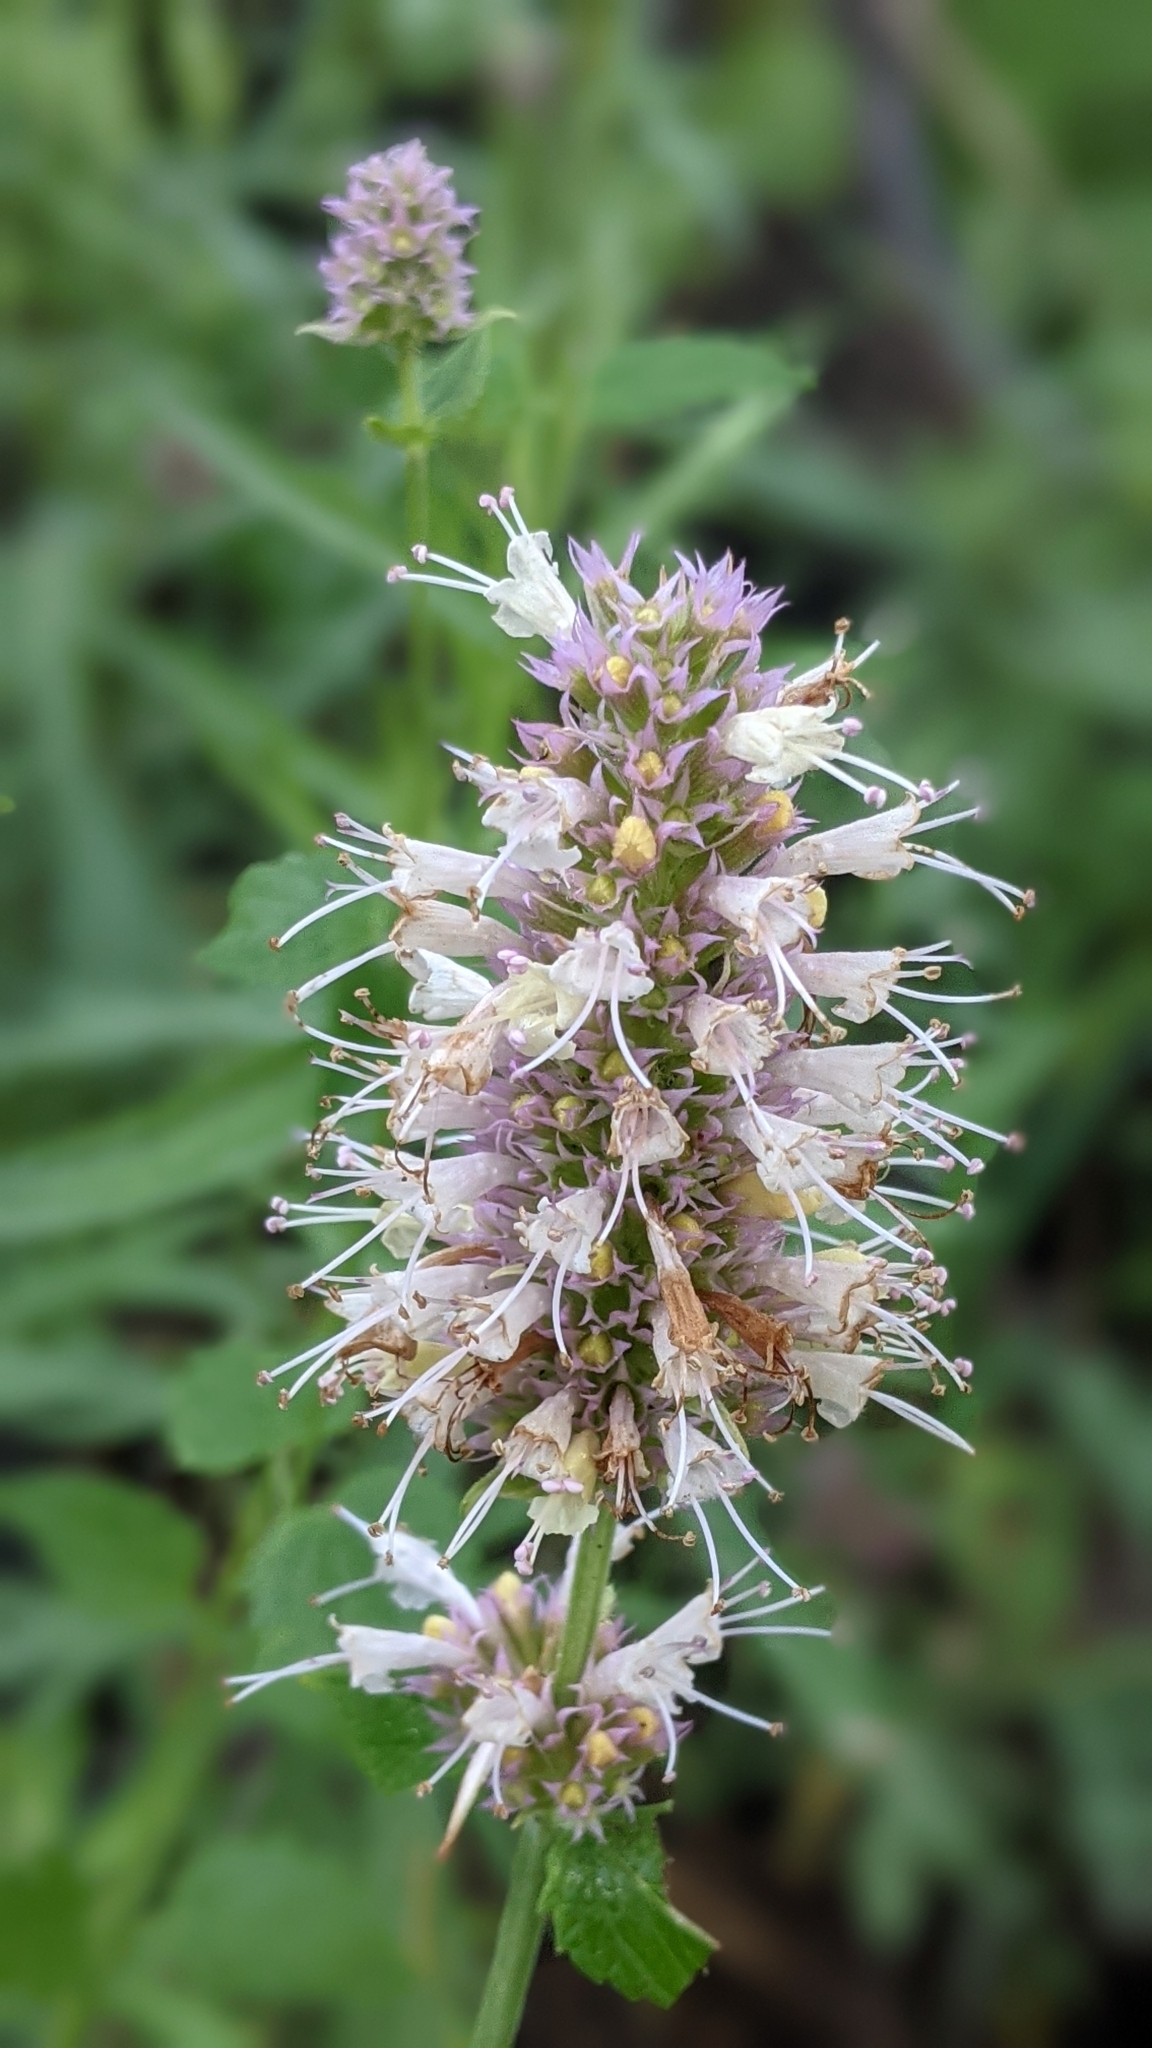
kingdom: Plantae
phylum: Tracheophyta
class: Magnoliopsida
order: Lamiales
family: Lamiaceae
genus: Agastache
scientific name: Agastache urticifolia
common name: Horsemint giant hyssop
